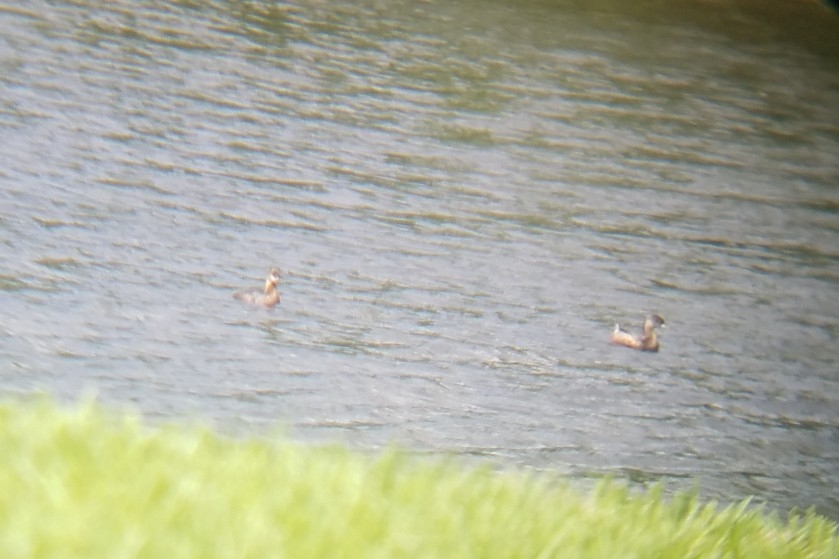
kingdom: Animalia
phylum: Chordata
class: Aves
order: Podicipediformes
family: Podicipedidae
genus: Podilymbus
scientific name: Podilymbus podiceps
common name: Pied-billed grebe
